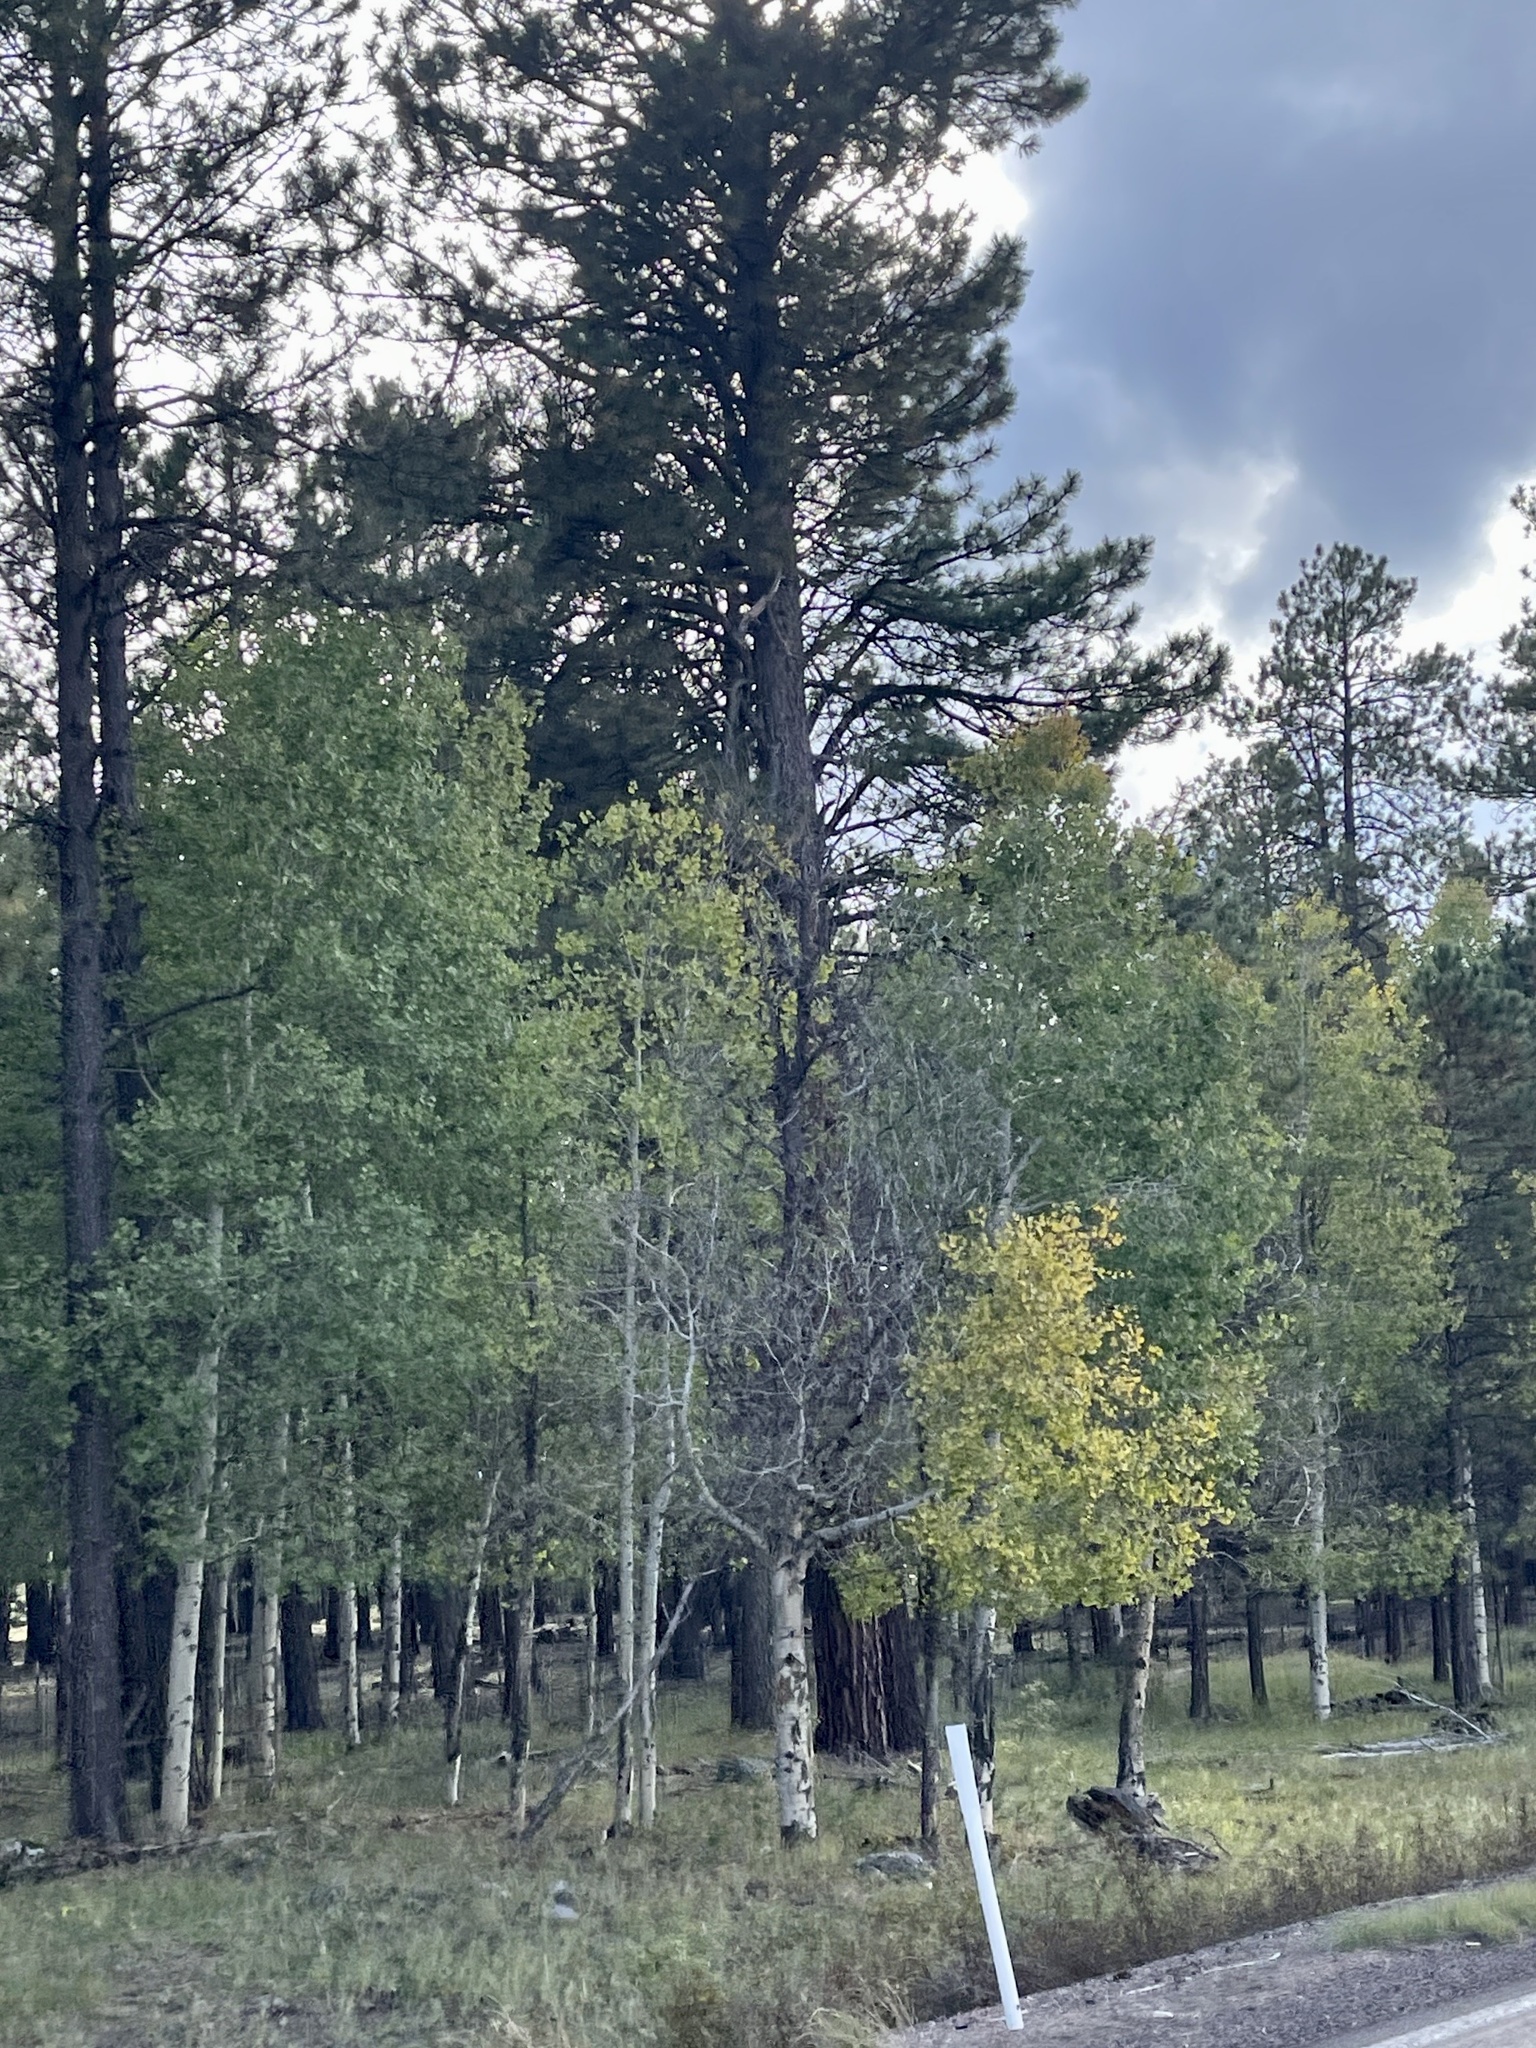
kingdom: Plantae
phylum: Tracheophyta
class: Magnoliopsida
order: Malpighiales
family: Salicaceae
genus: Populus
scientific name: Populus tremuloides
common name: Quaking aspen
